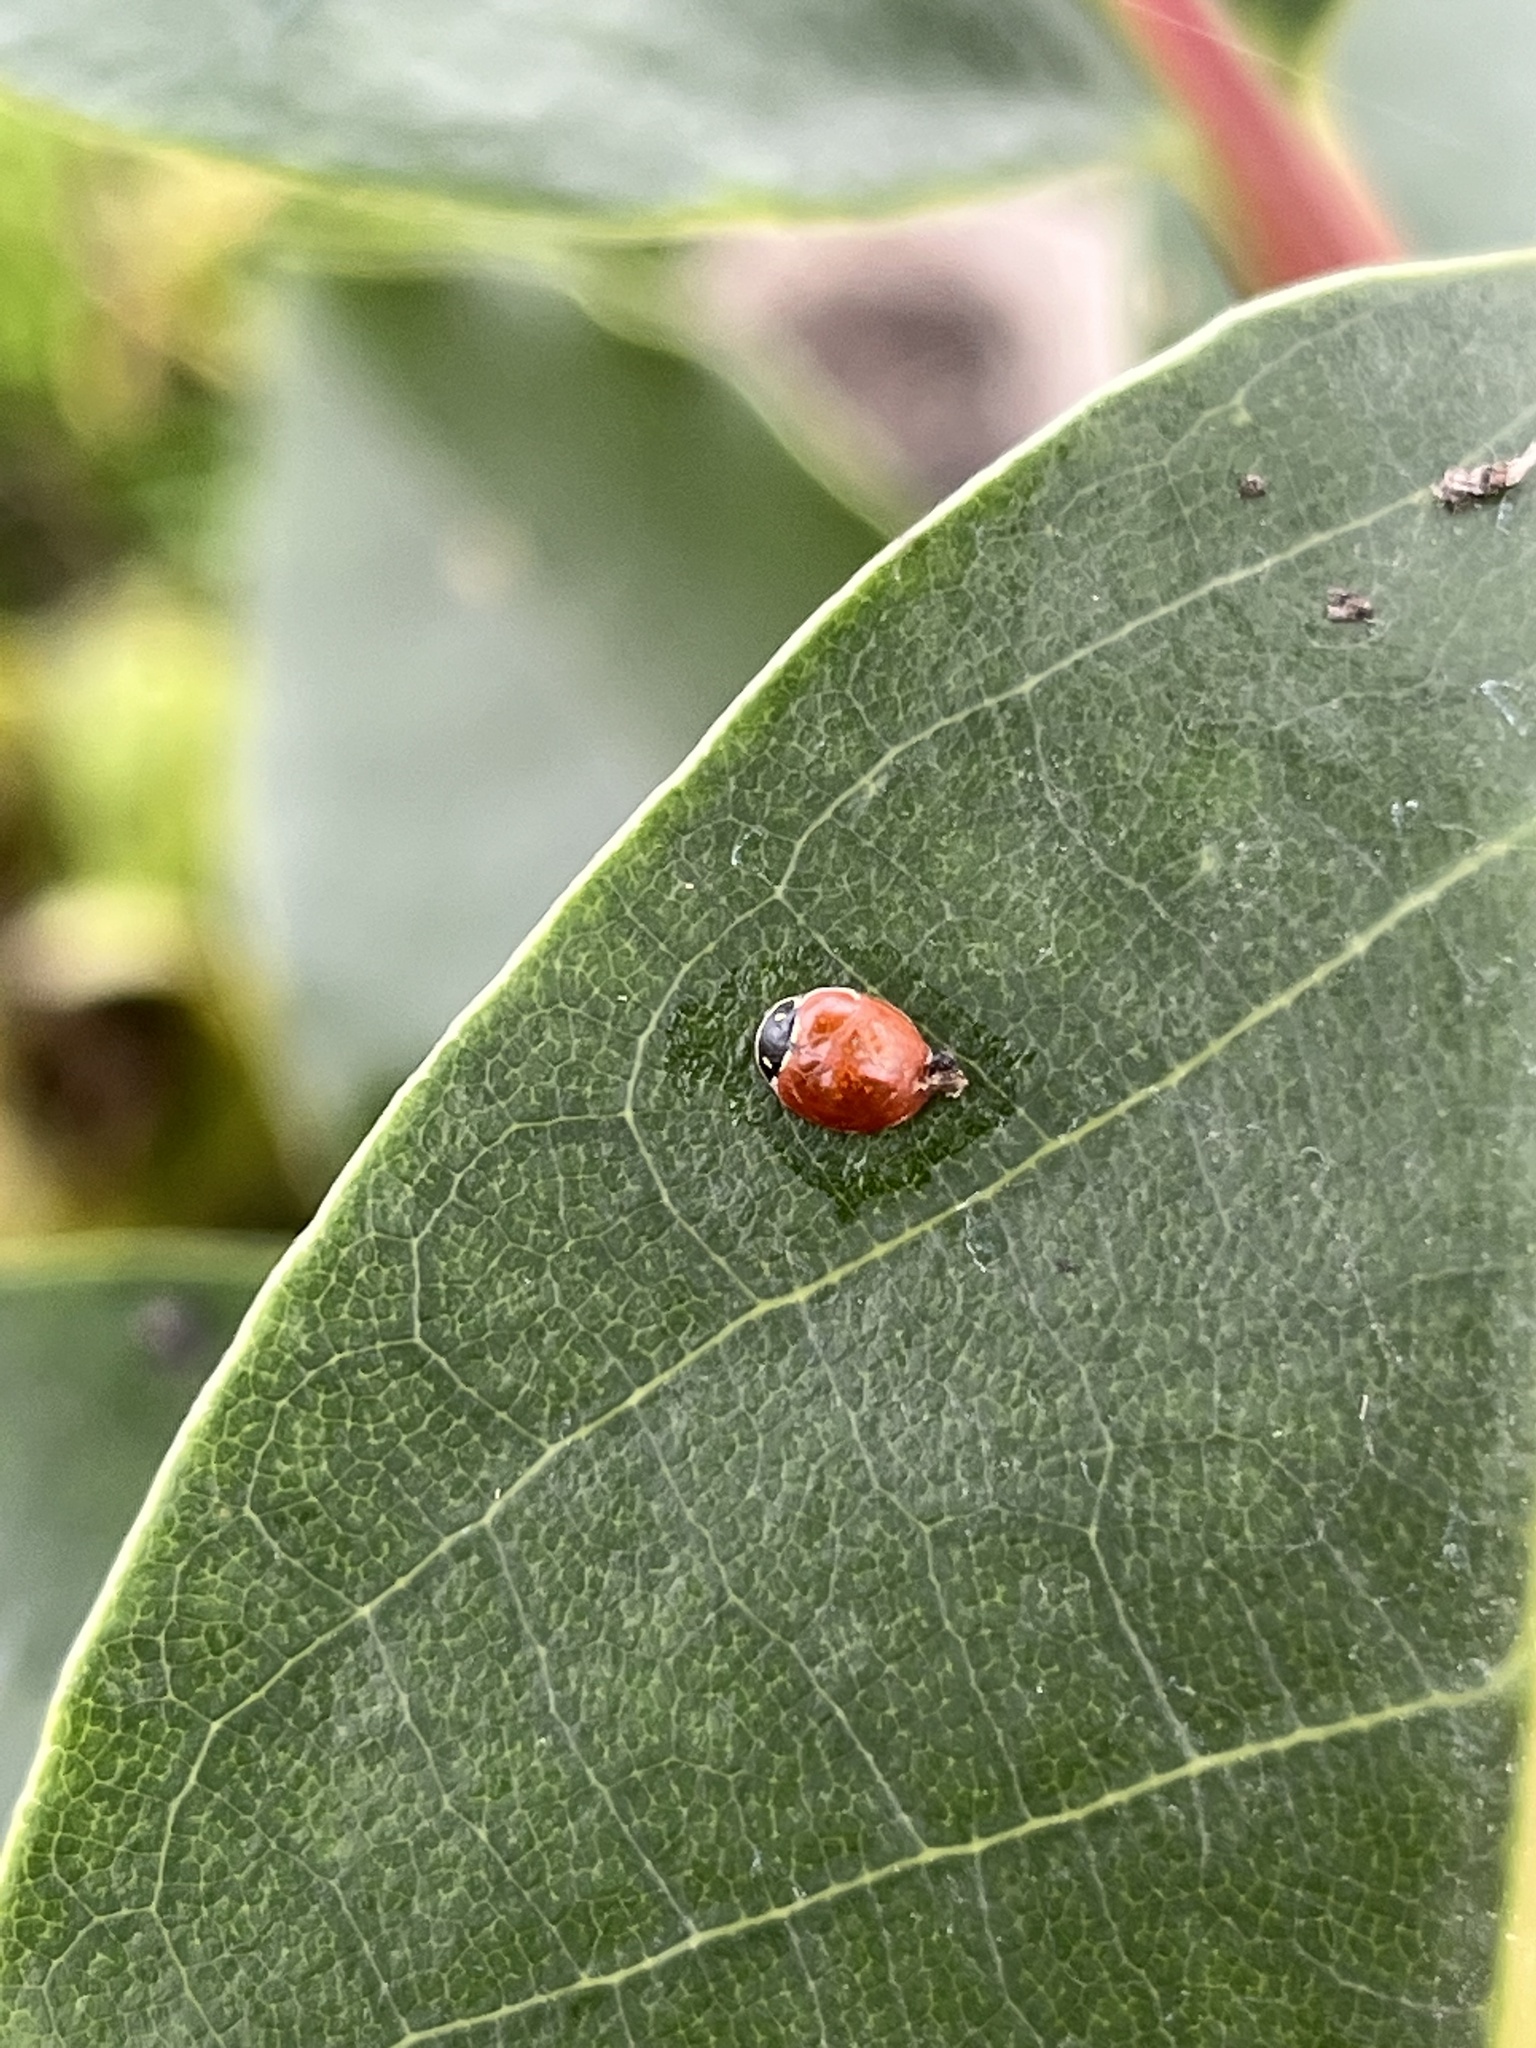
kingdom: Animalia
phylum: Arthropoda
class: Insecta
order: Coleoptera
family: Coccinellidae
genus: Cycloneda
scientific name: Cycloneda emarginata
